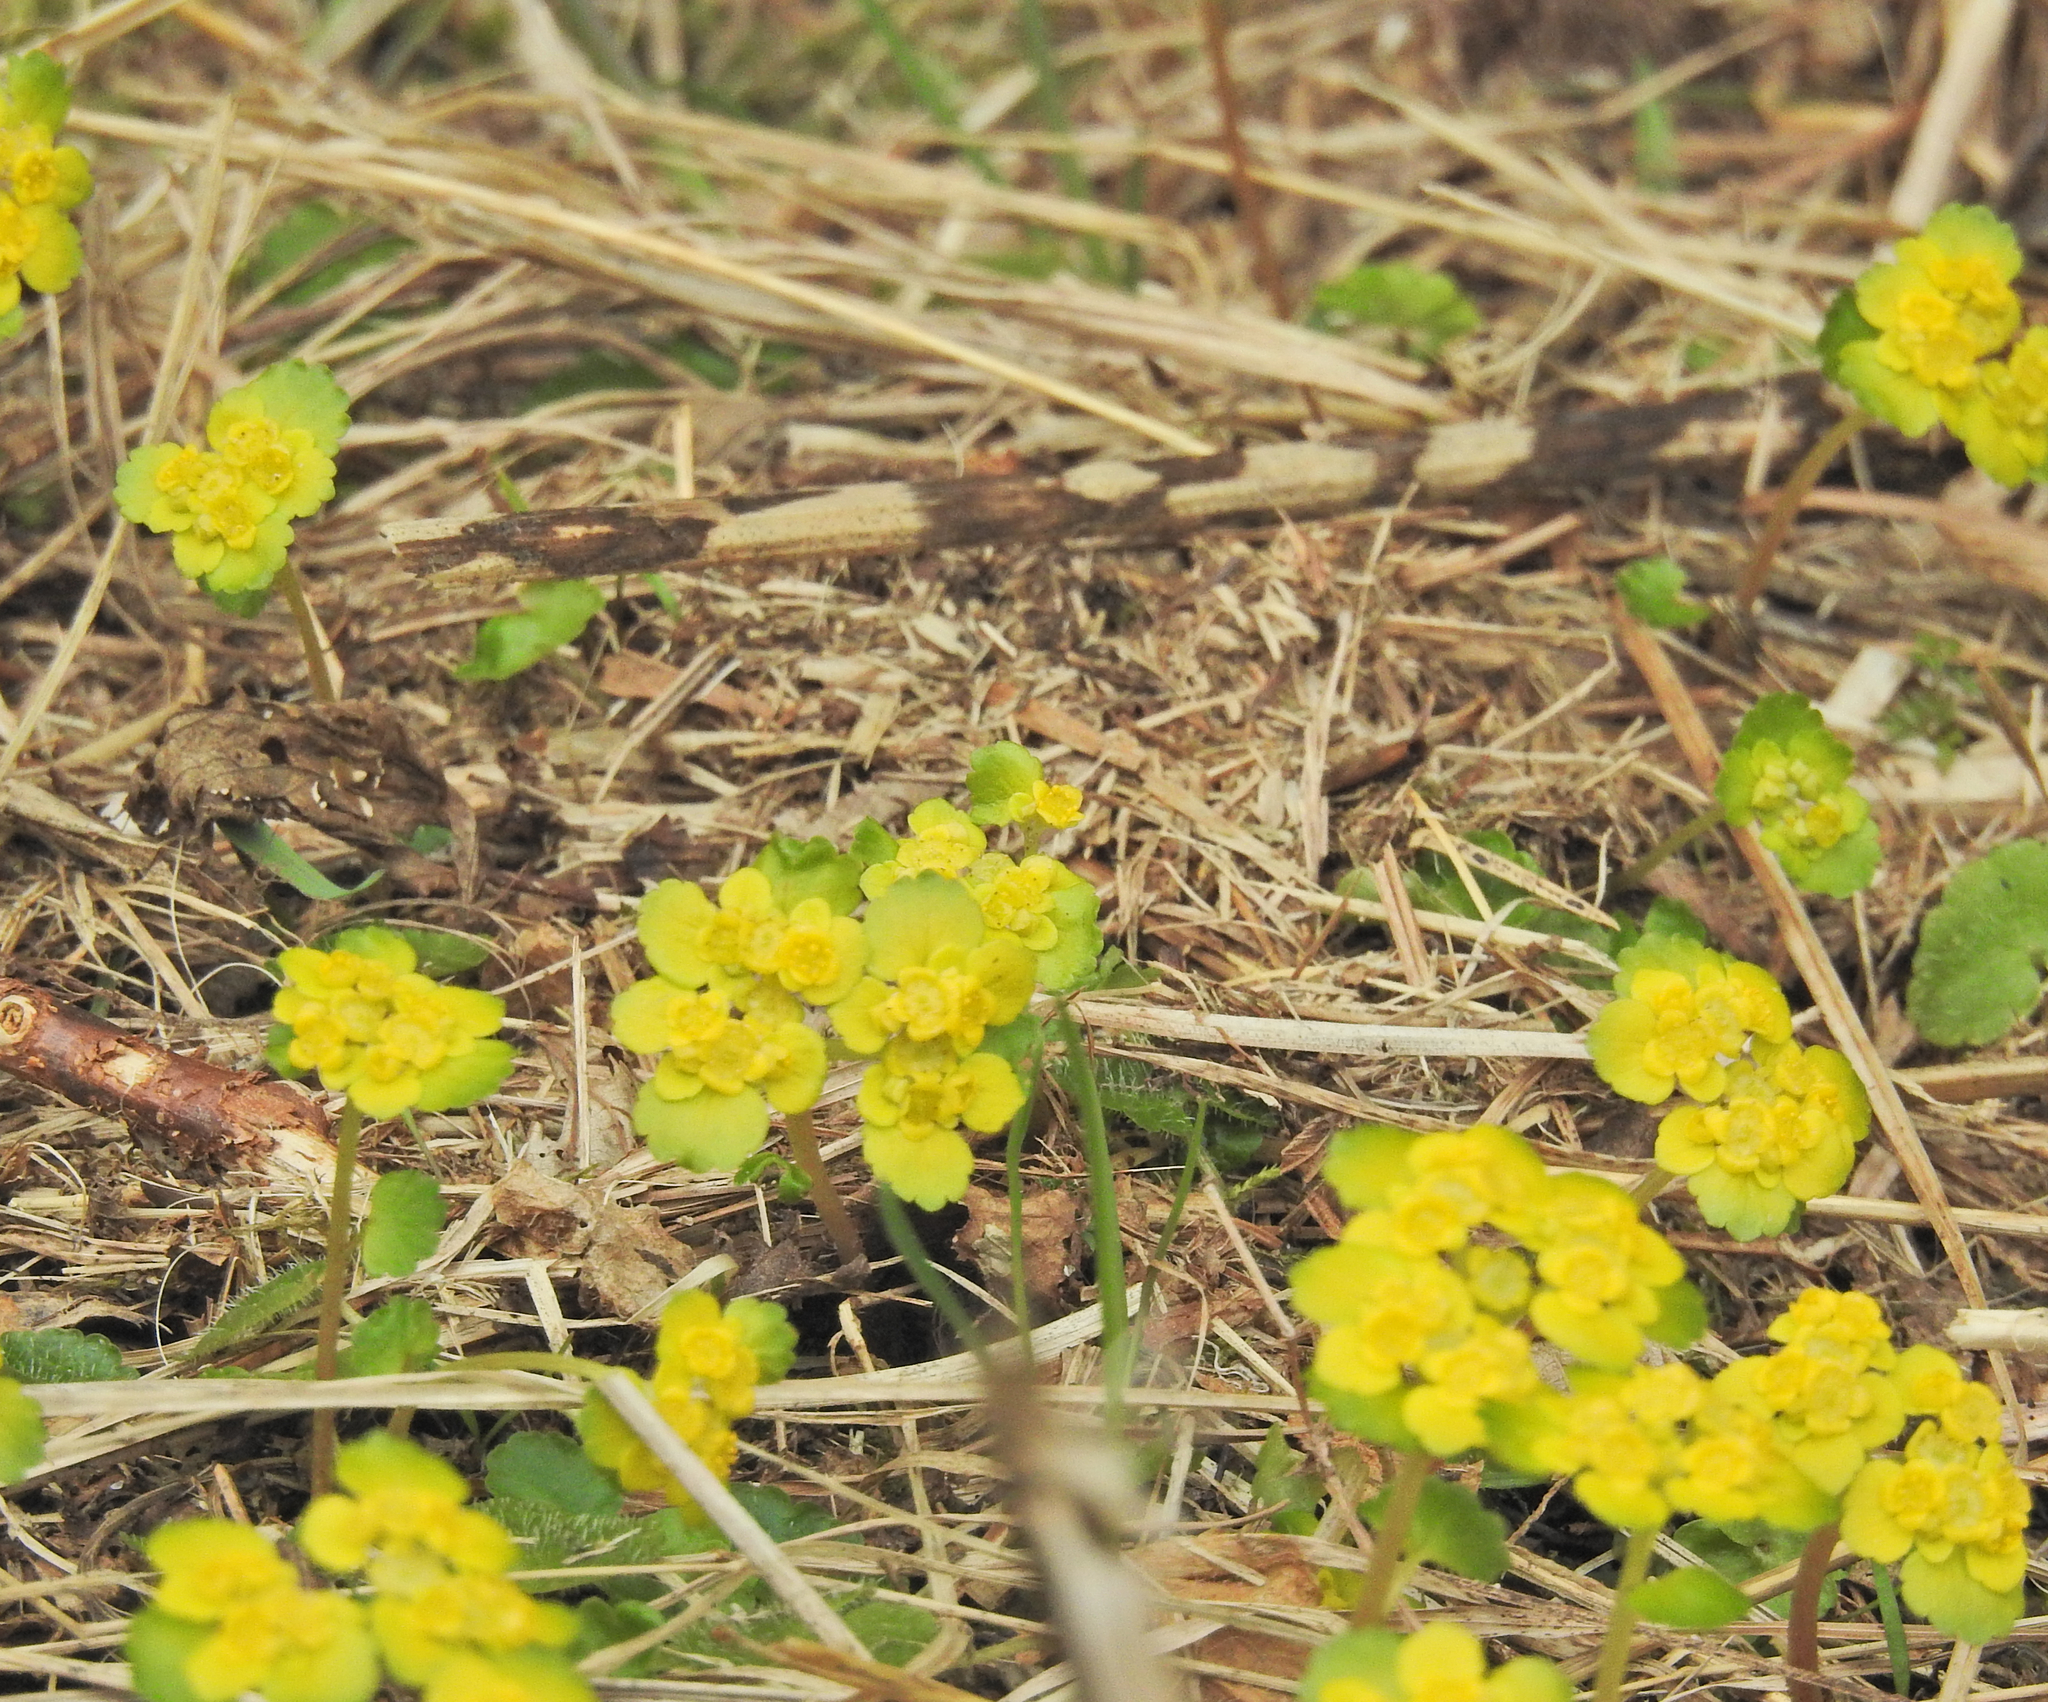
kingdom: Plantae
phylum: Tracheophyta
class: Magnoliopsida
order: Saxifragales
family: Saxifragaceae
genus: Chrysosplenium
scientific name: Chrysosplenium alternifolium
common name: Alternate-leaved golden-saxifrage
